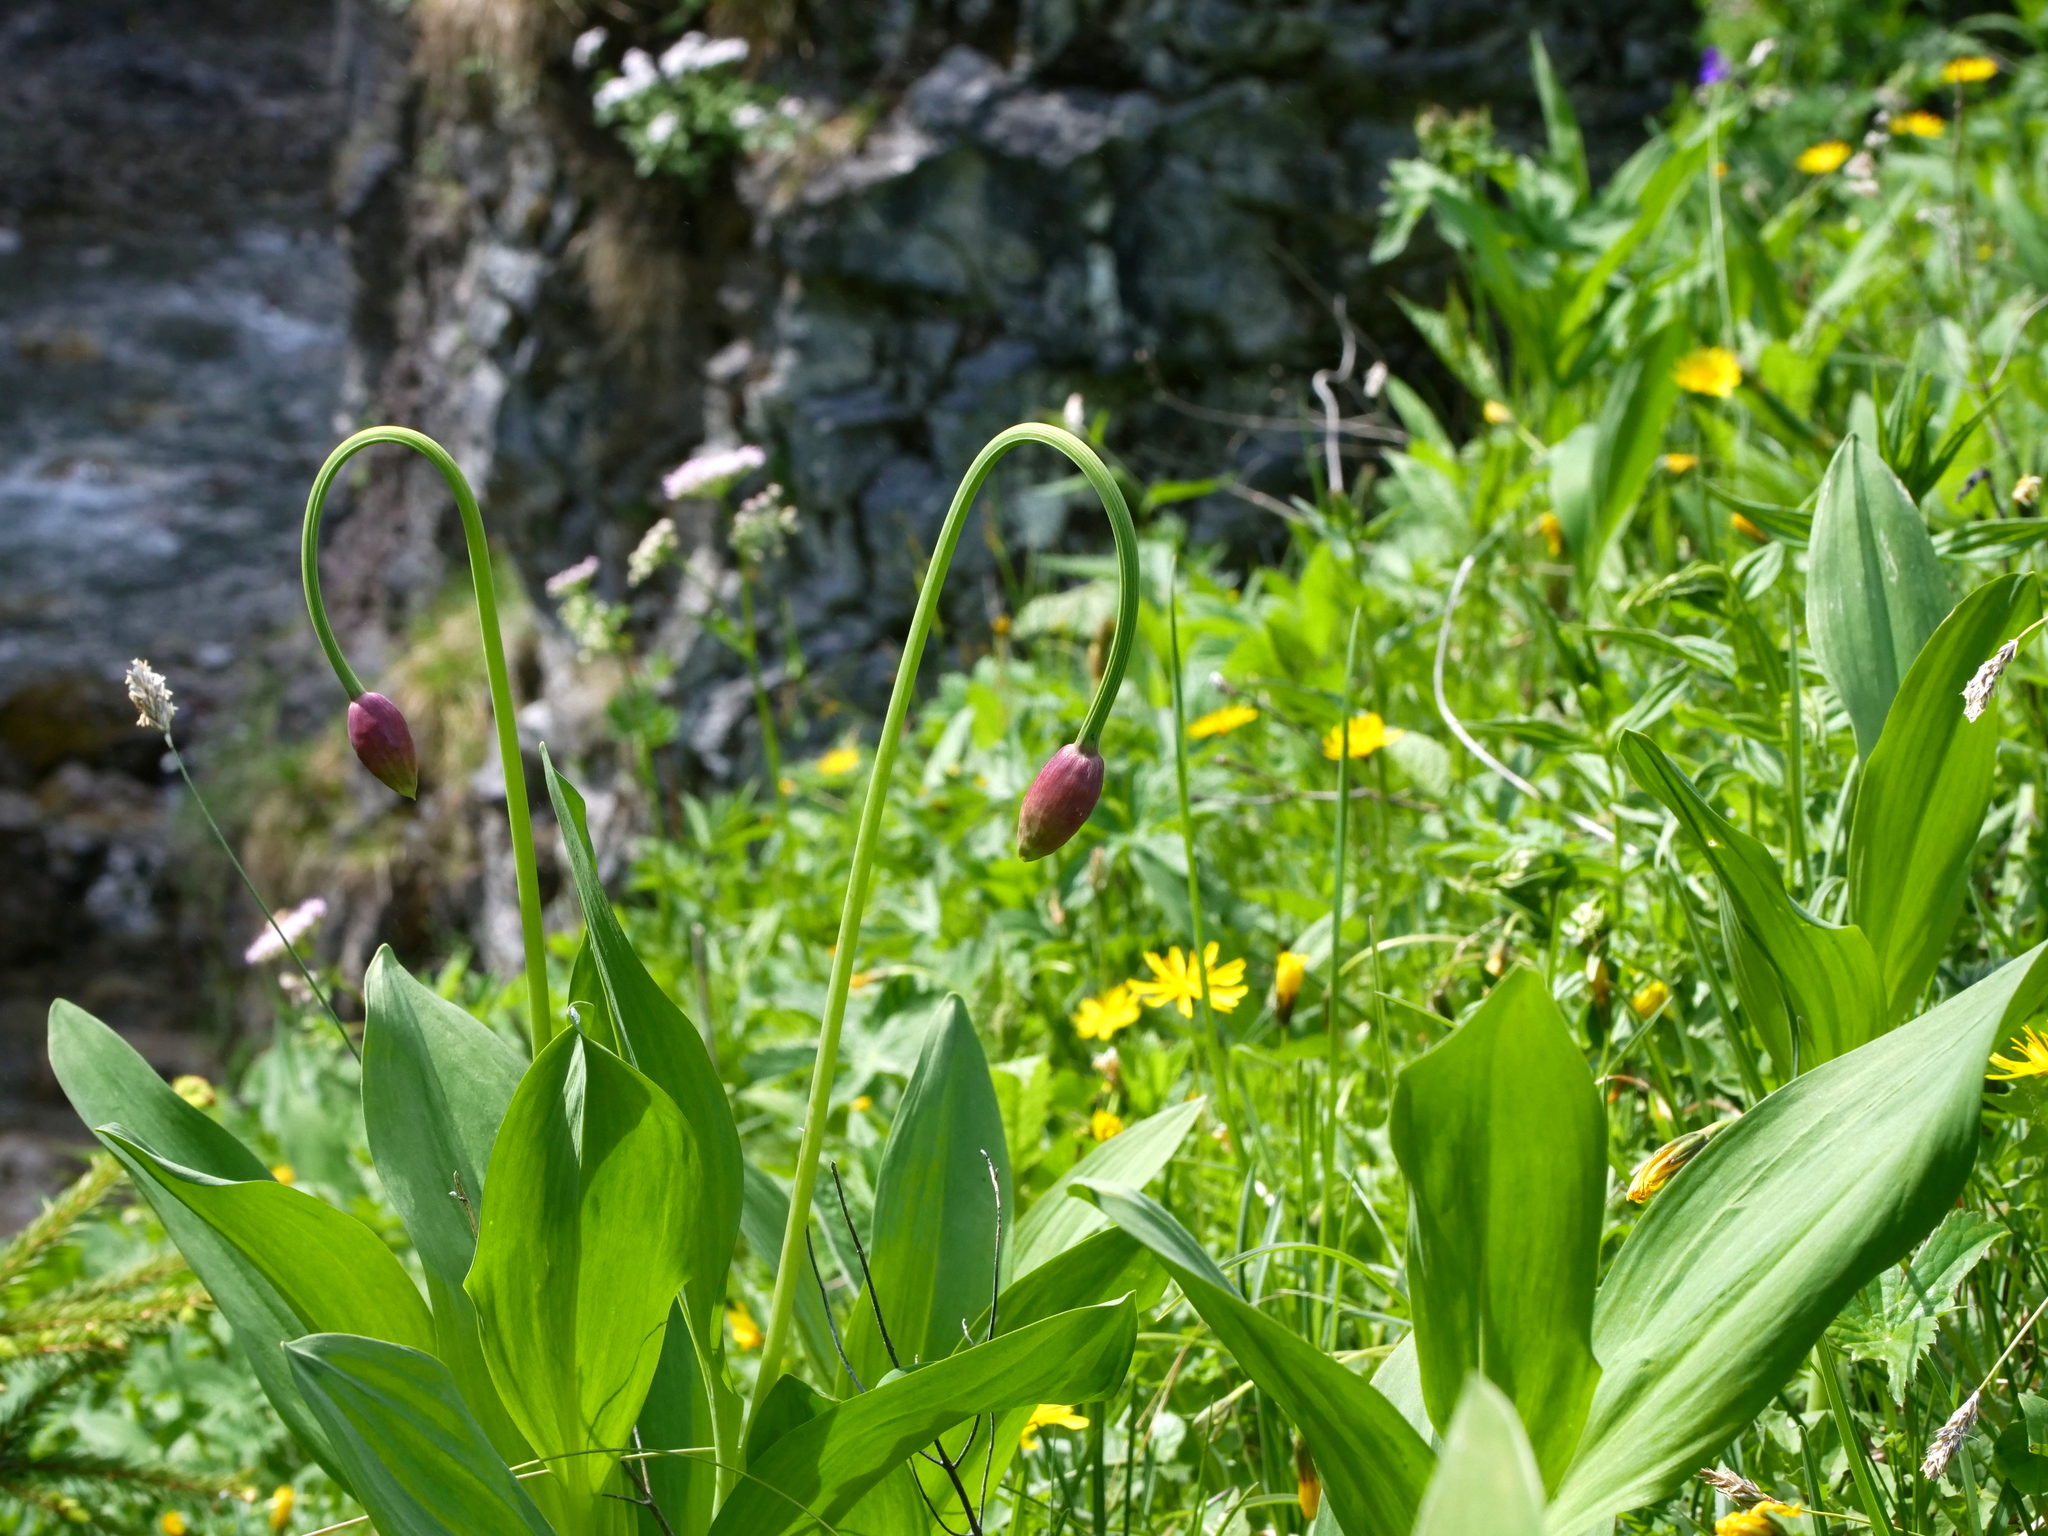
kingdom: Plantae
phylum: Tracheophyta
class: Liliopsida
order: Asparagales
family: Amaryllidaceae
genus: Allium
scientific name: Allium victorialis
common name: Alpine leek
